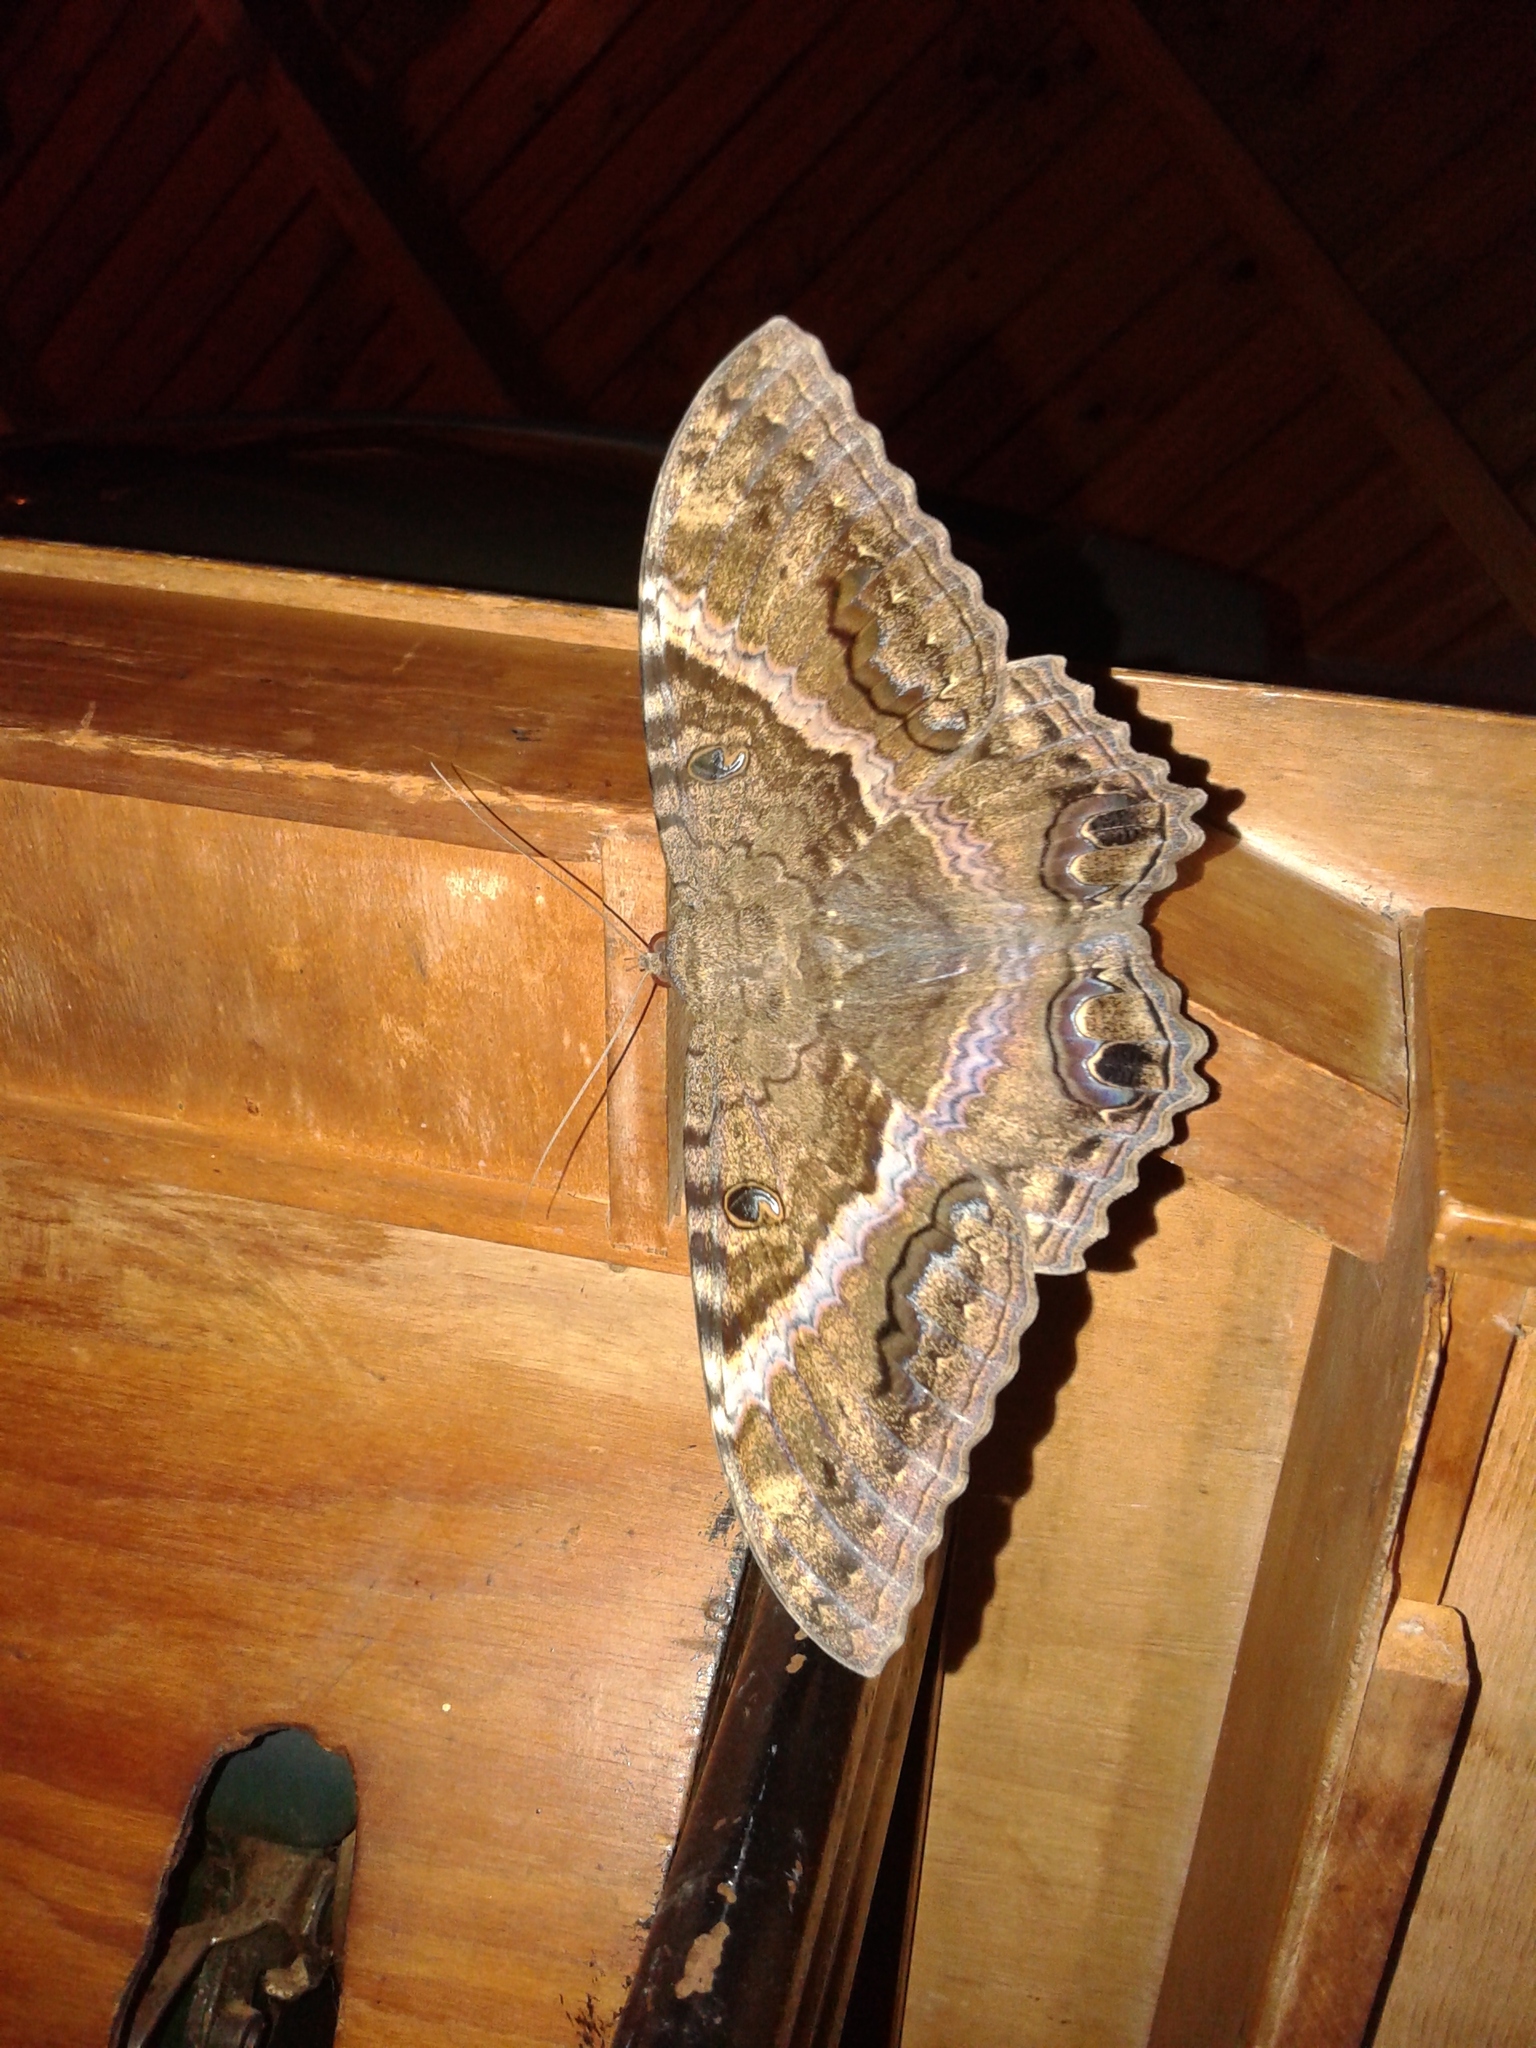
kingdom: Animalia
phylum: Arthropoda
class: Insecta
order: Lepidoptera
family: Erebidae
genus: Ascalapha
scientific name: Ascalapha odorata
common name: Black witch
